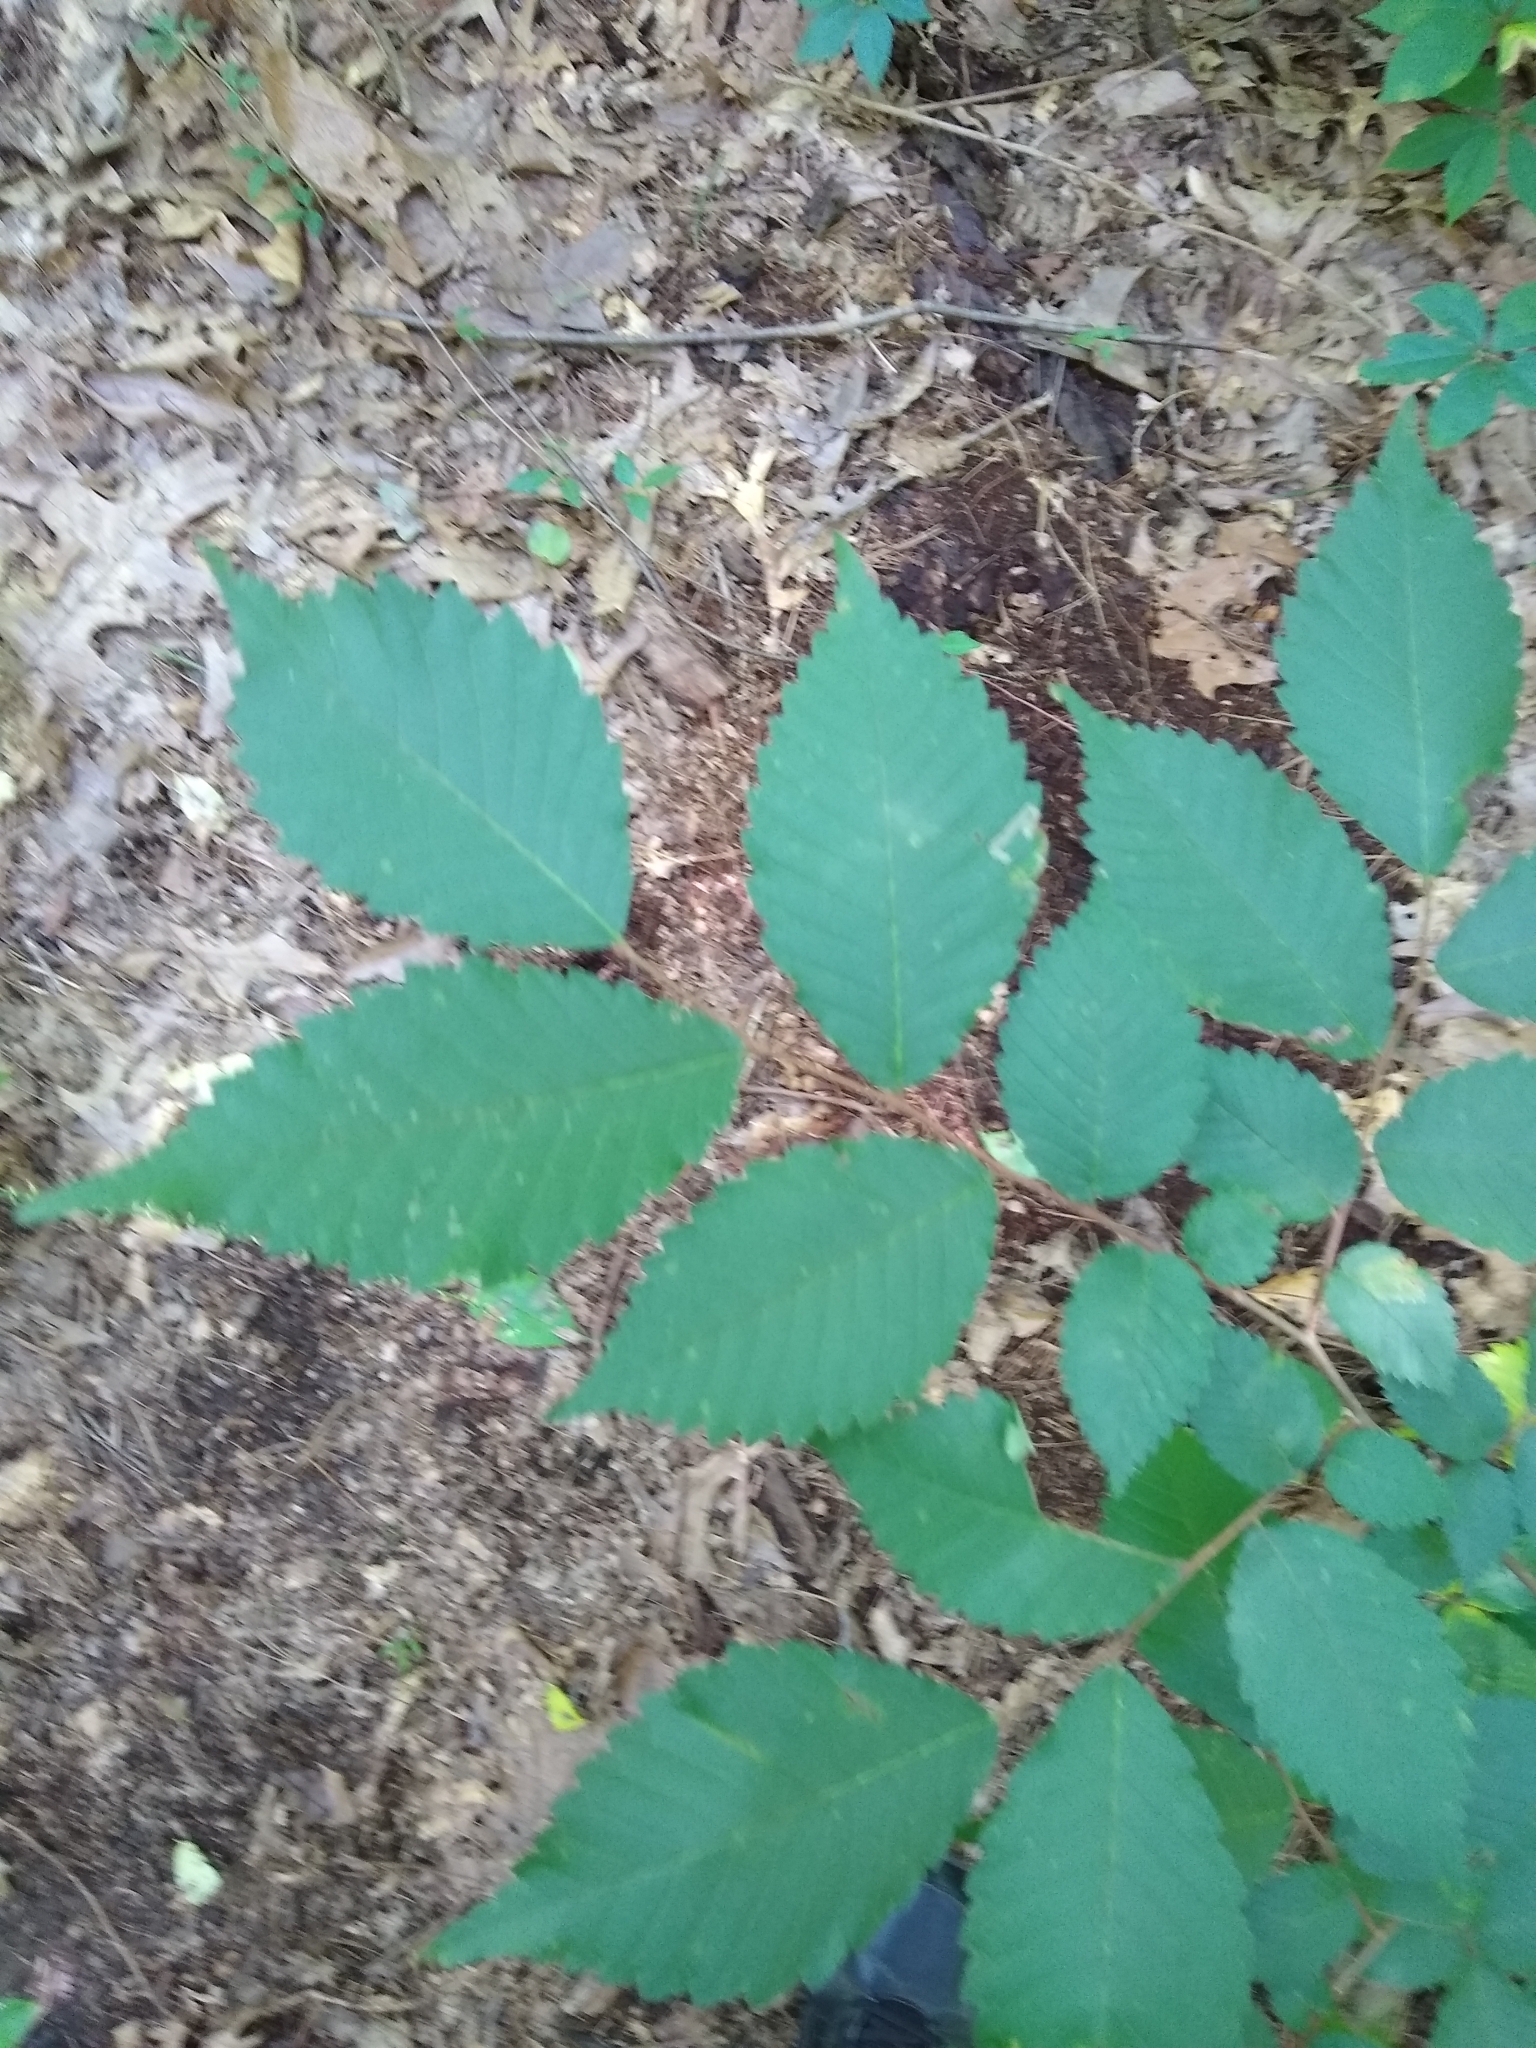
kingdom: Plantae
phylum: Tracheophyta
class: Magnoliopsida
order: Rosales
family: Ulmaceae
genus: Ulmus
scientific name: Ulmus americana
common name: American elm
